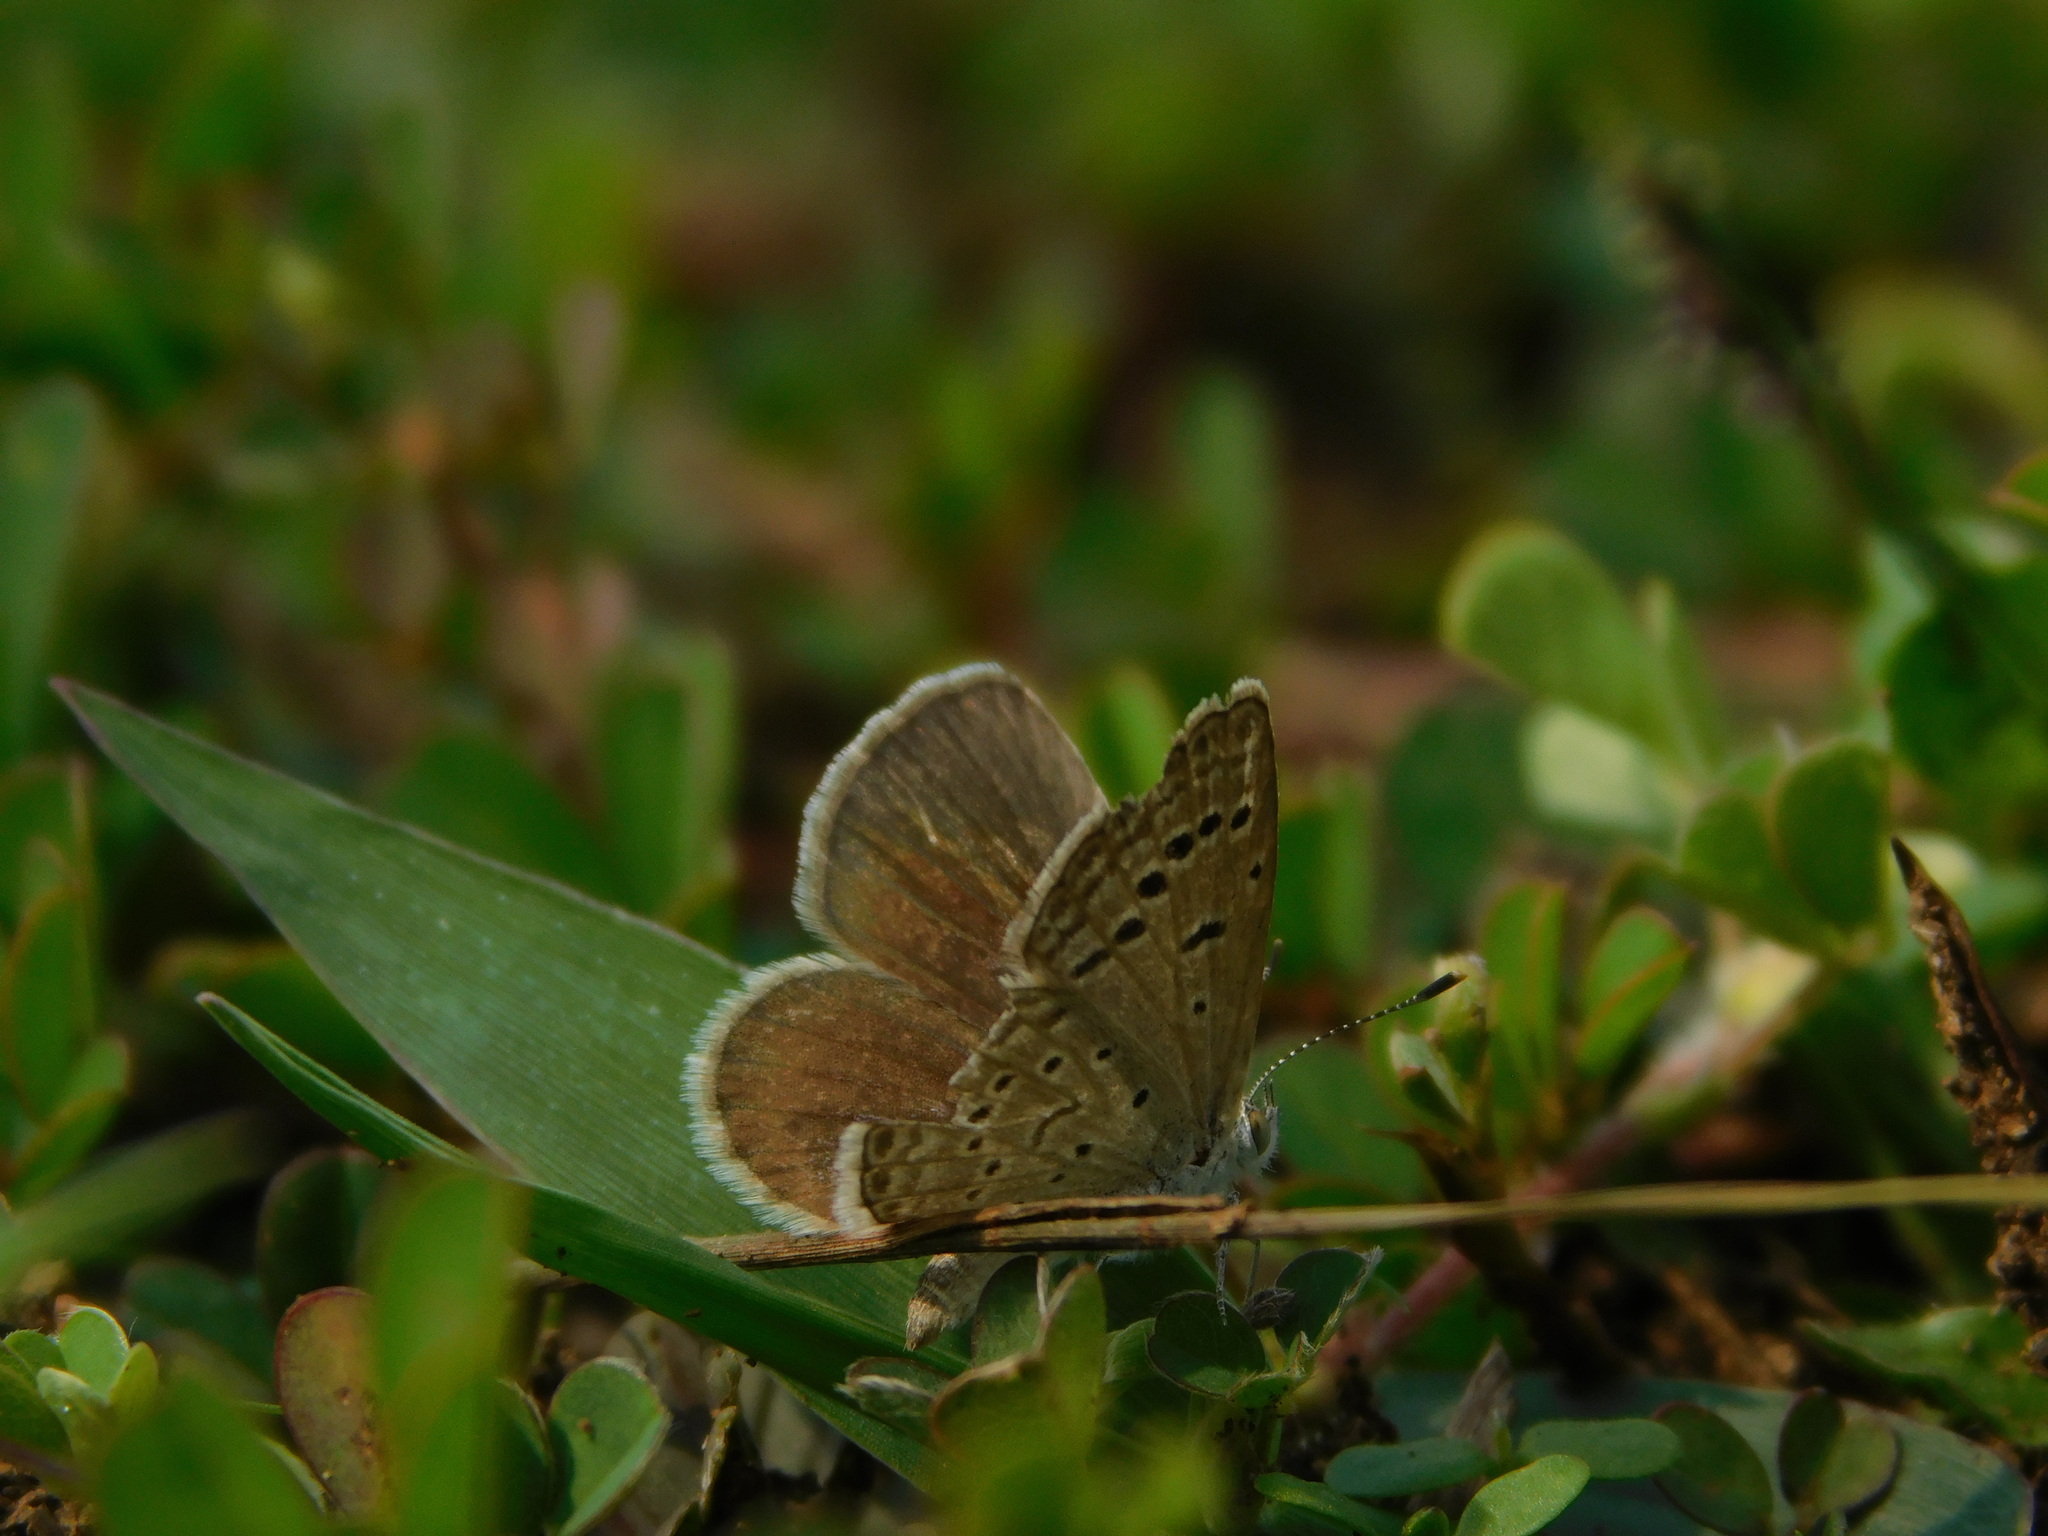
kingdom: Animalia
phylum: Arthropoda
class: Insecta
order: Lepidoptera
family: Lycaenidae
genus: Zizeeria
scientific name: Zizeeria karsandra
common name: Dark grass blue
